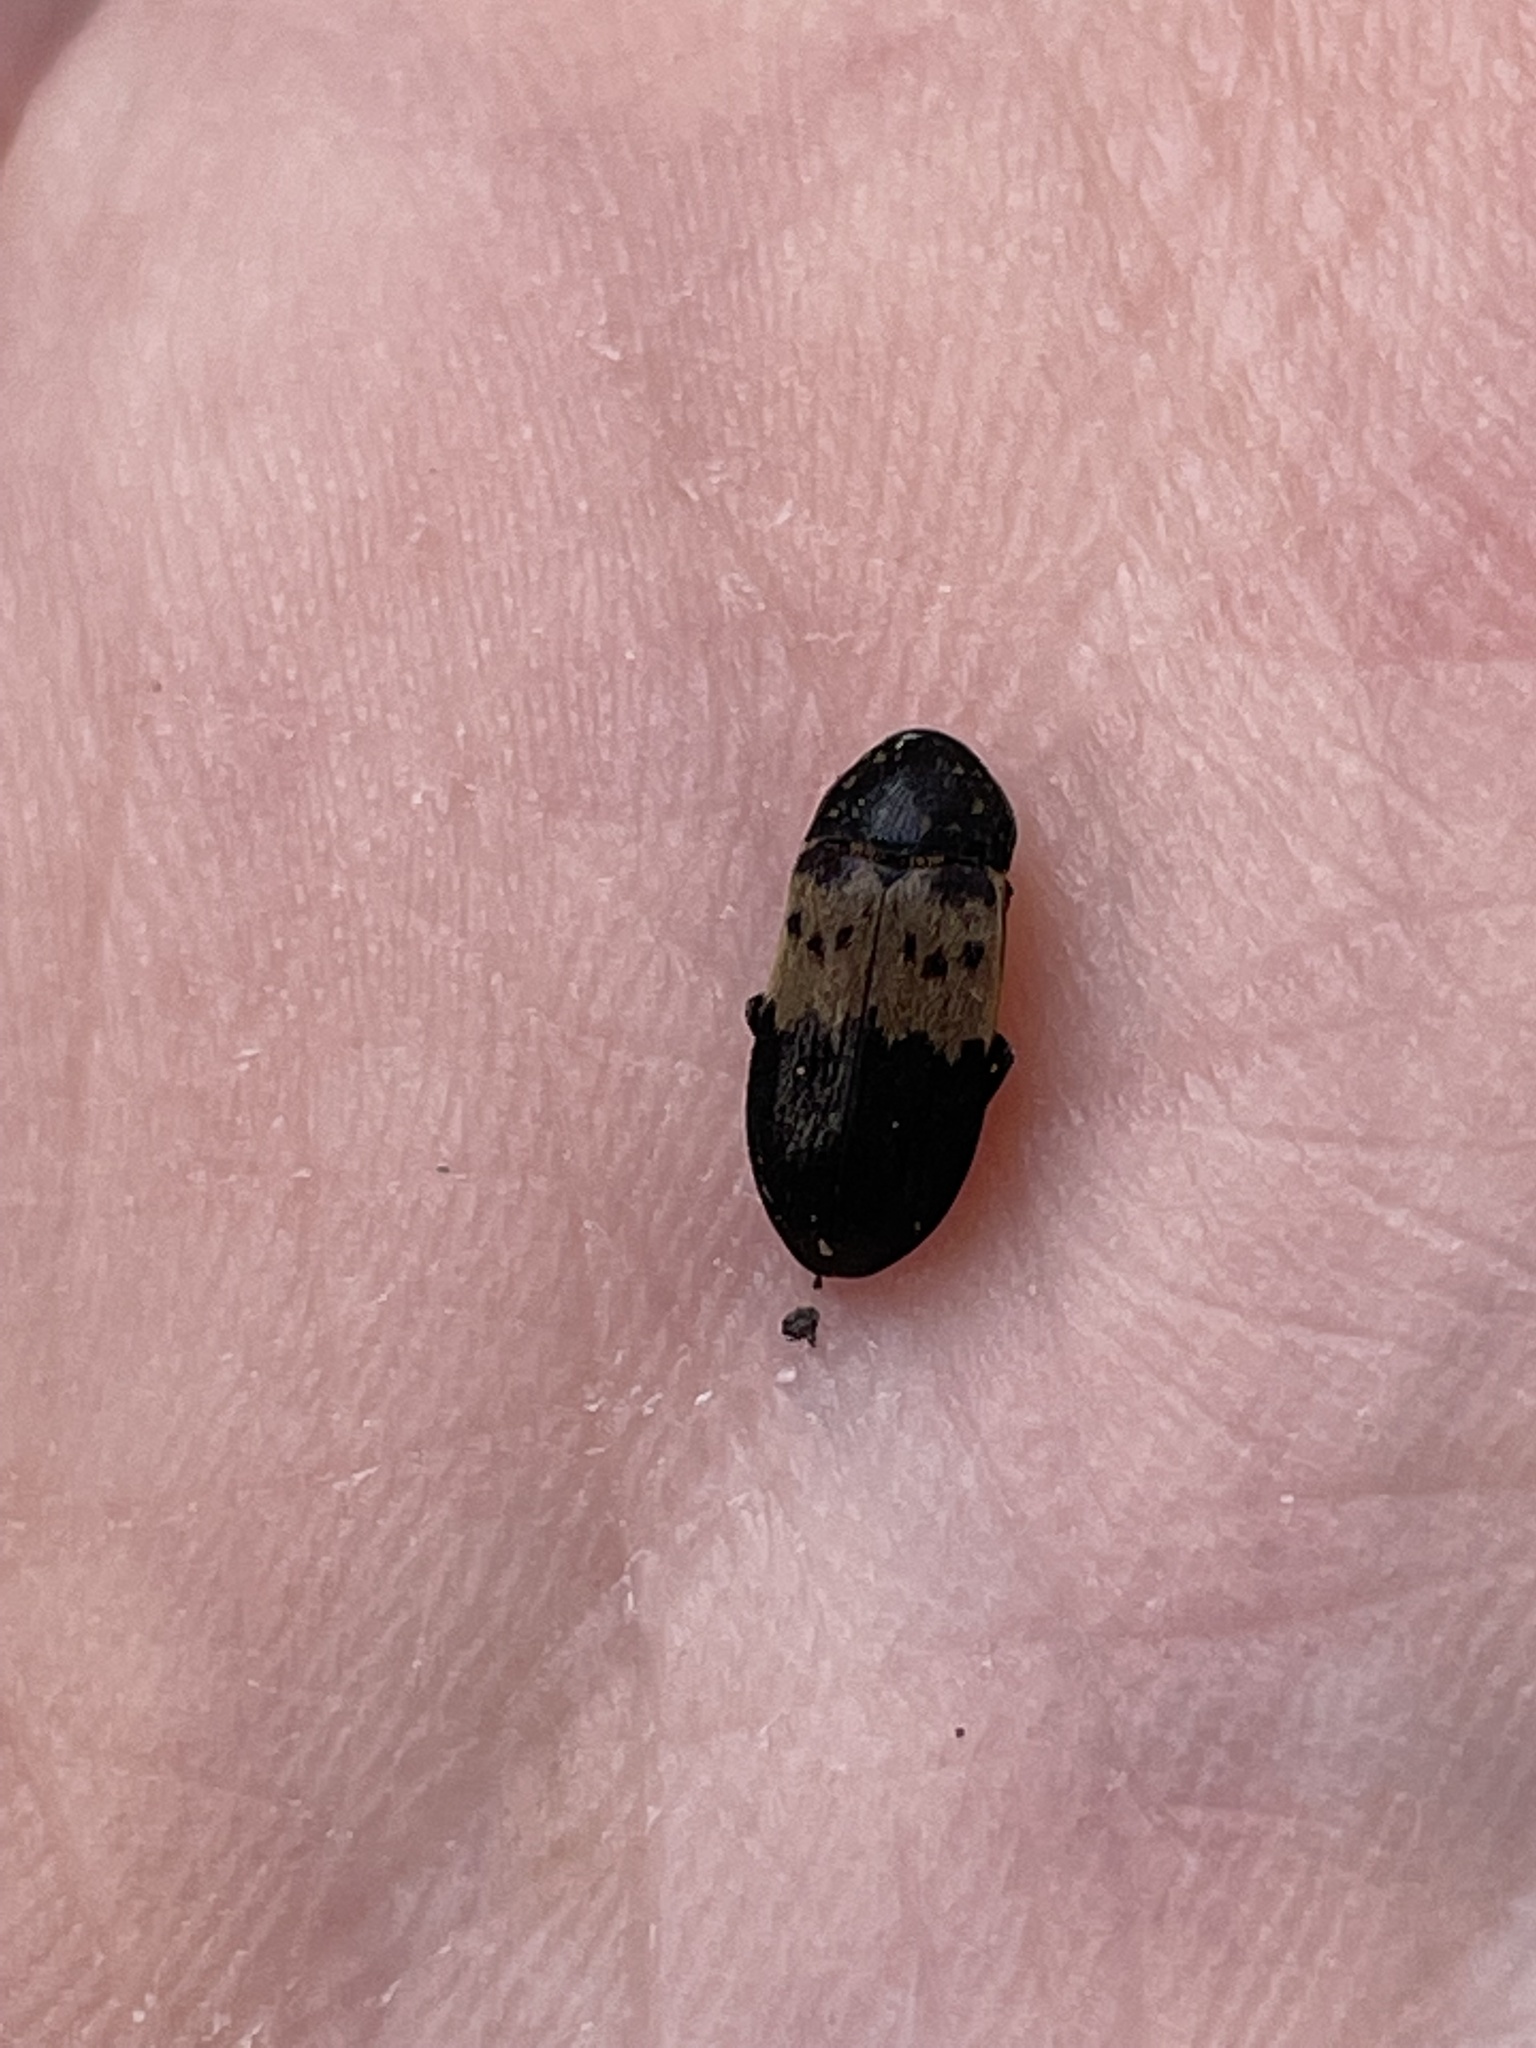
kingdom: Animalia
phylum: Arthropoda
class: Insecta
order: Coleoptera
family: Dermestidae
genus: Dermestes
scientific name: Dermestes lardarius
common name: Larder beetle
